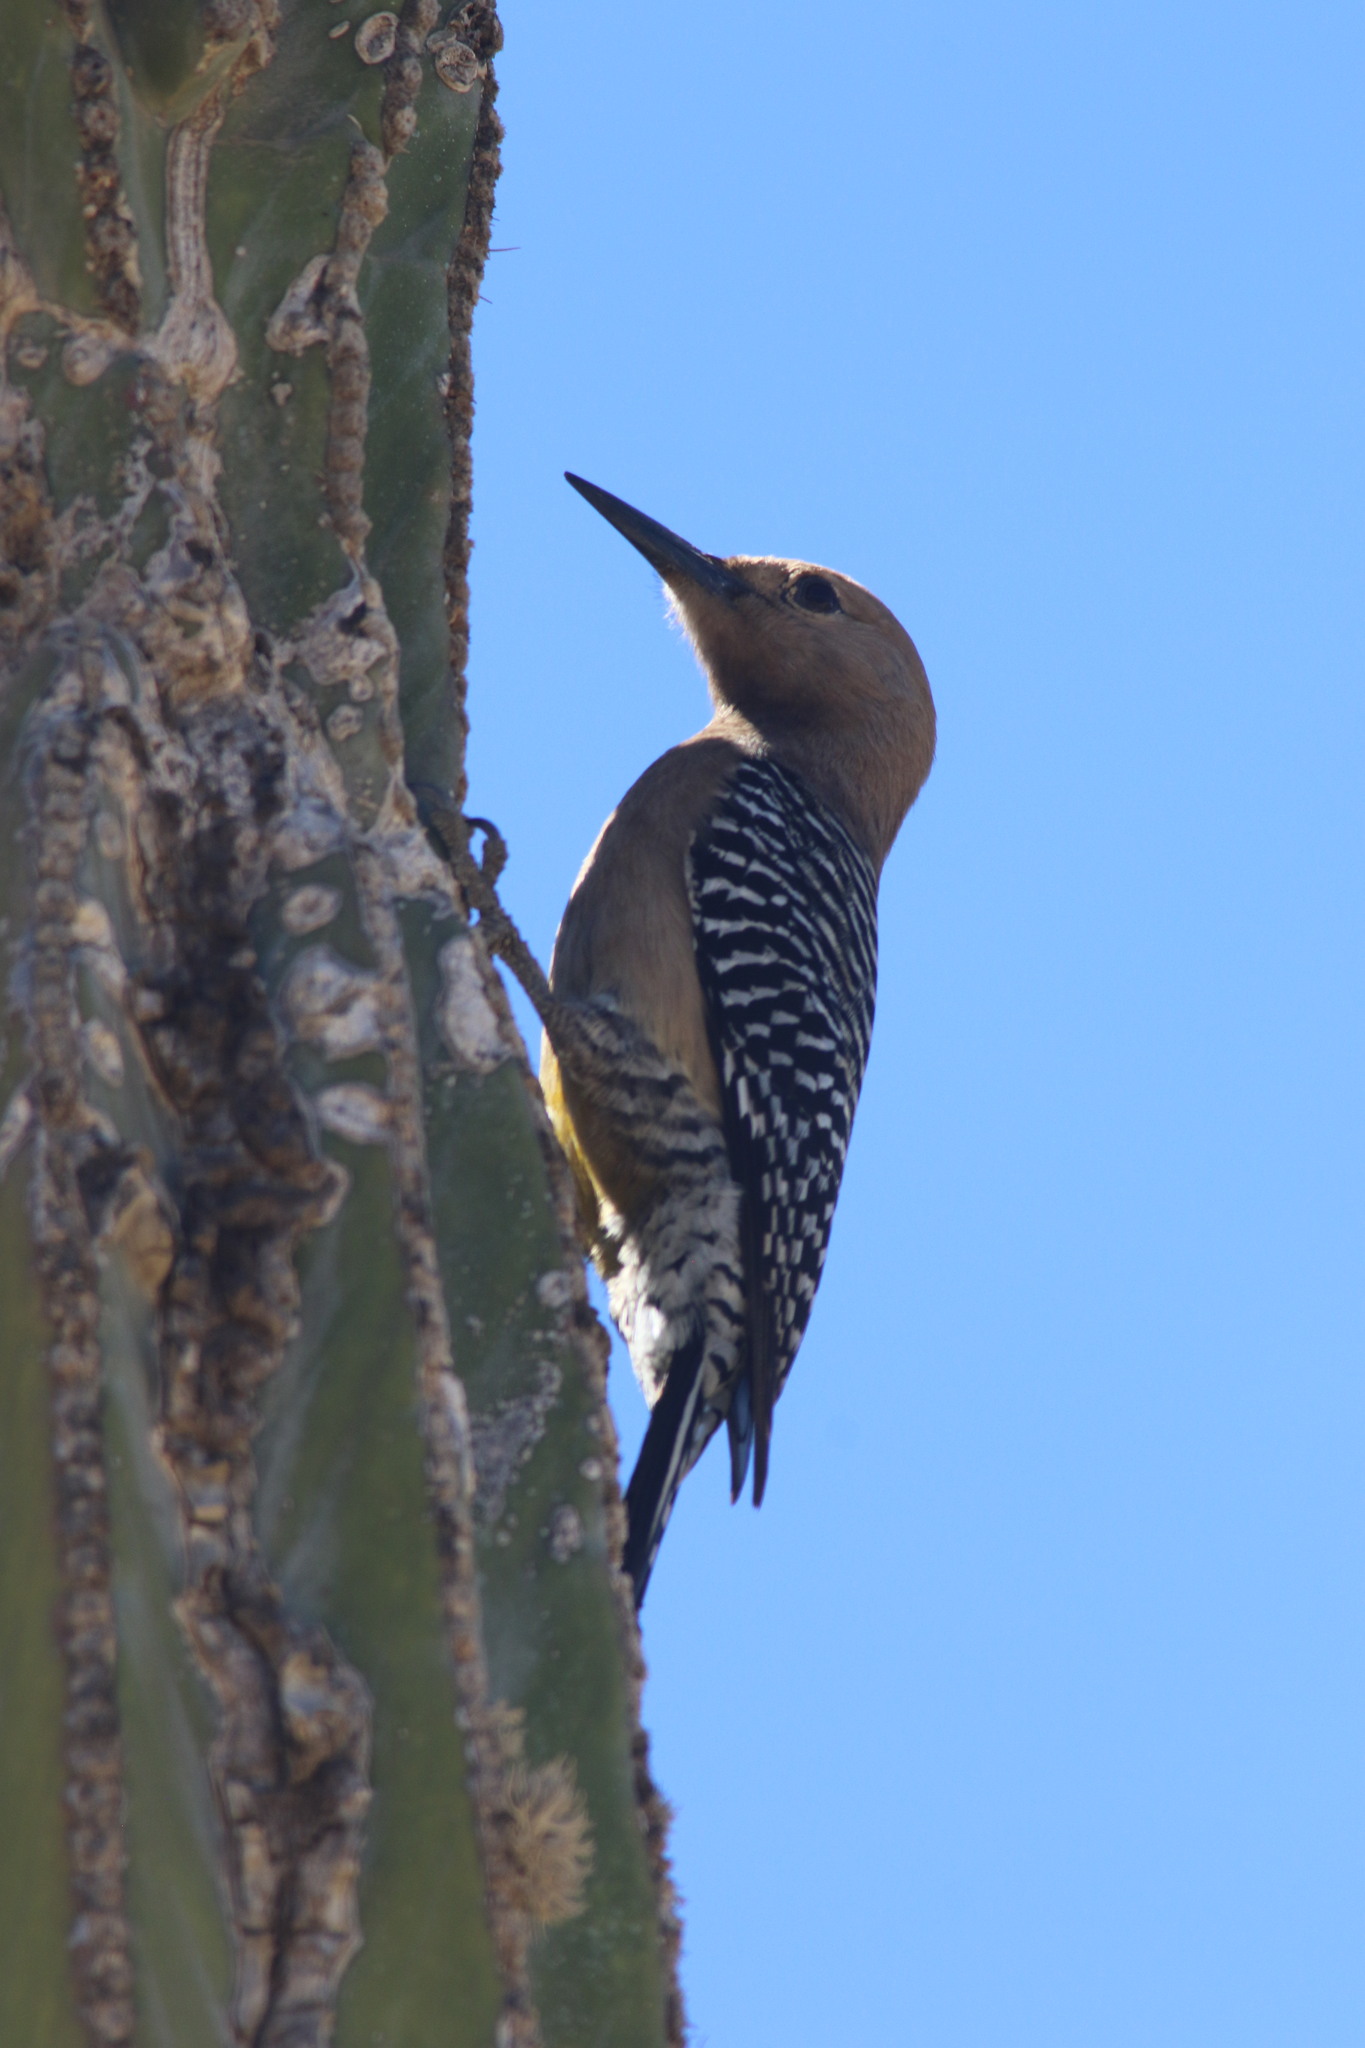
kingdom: Animalia
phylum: Chordata
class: Aves
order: Piciformes
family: Picidae
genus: Melanerpes
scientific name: Melanerpes uropygialis
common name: Gila woodpecker
